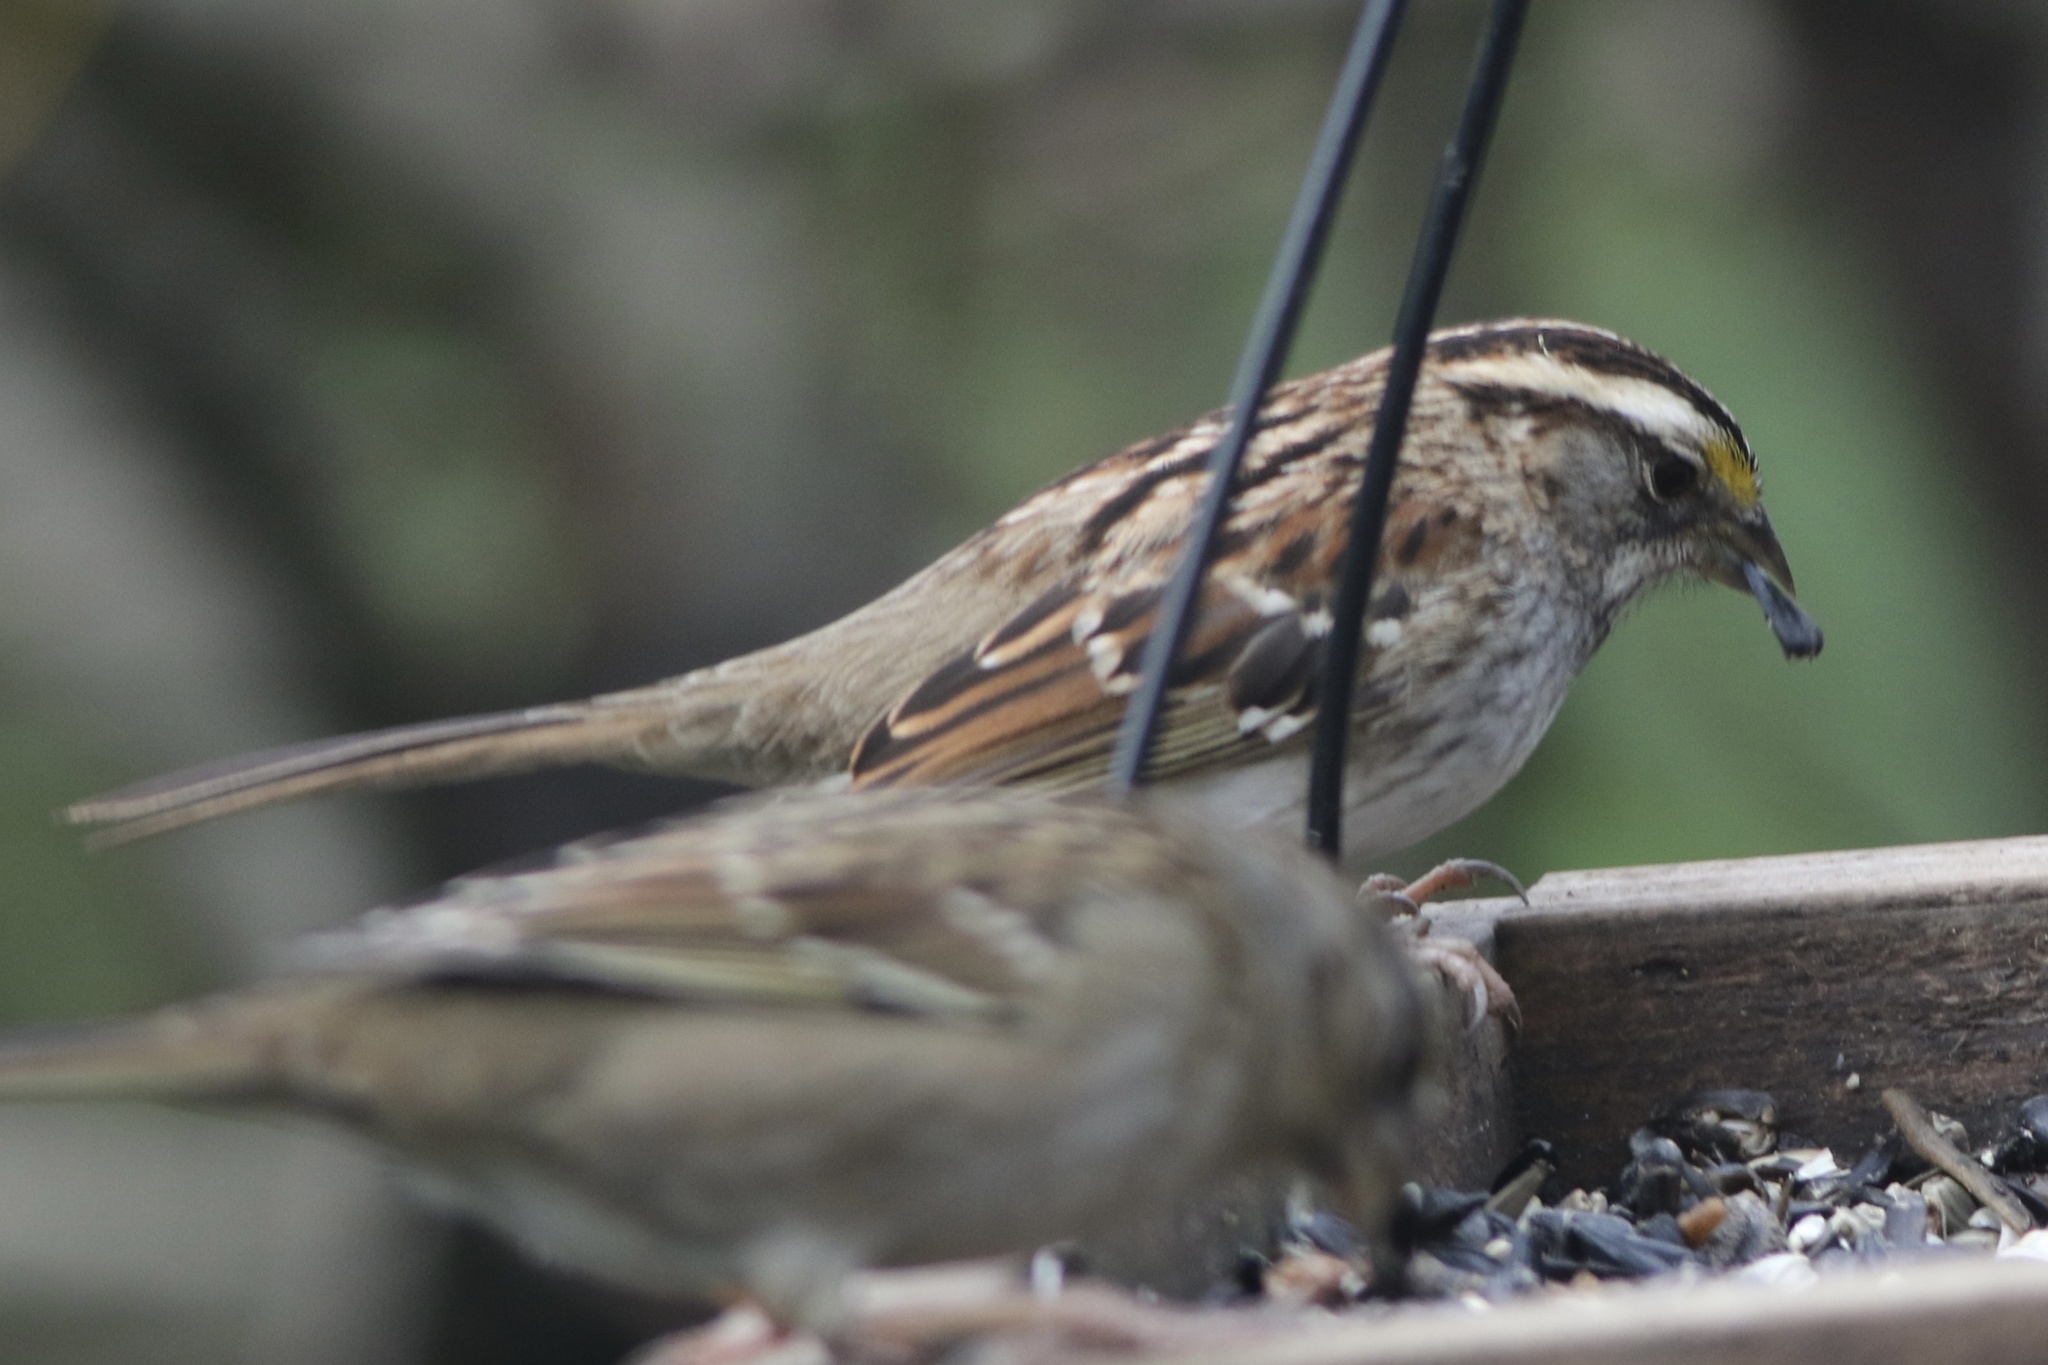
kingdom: Animalia
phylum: Chordata
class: Aves
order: Passeriformes
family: Passerellidae
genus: Zonotrichia
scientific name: Zonotrichia albicollis
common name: White-throated sparrow
